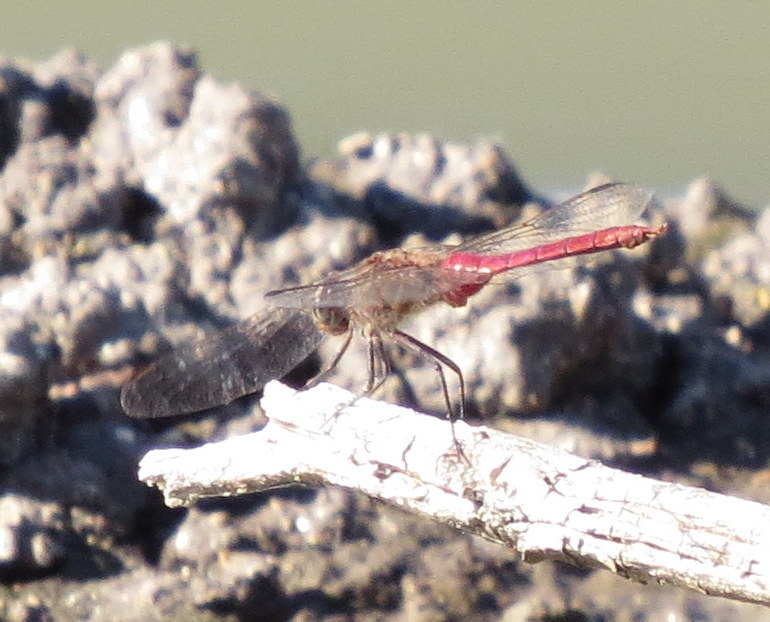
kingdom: Animalia
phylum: Arthropoda
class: Insecta
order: Odonata
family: Libellulidae
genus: Brachymesia
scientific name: Brachymesia furcata
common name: Red-taled pennant
